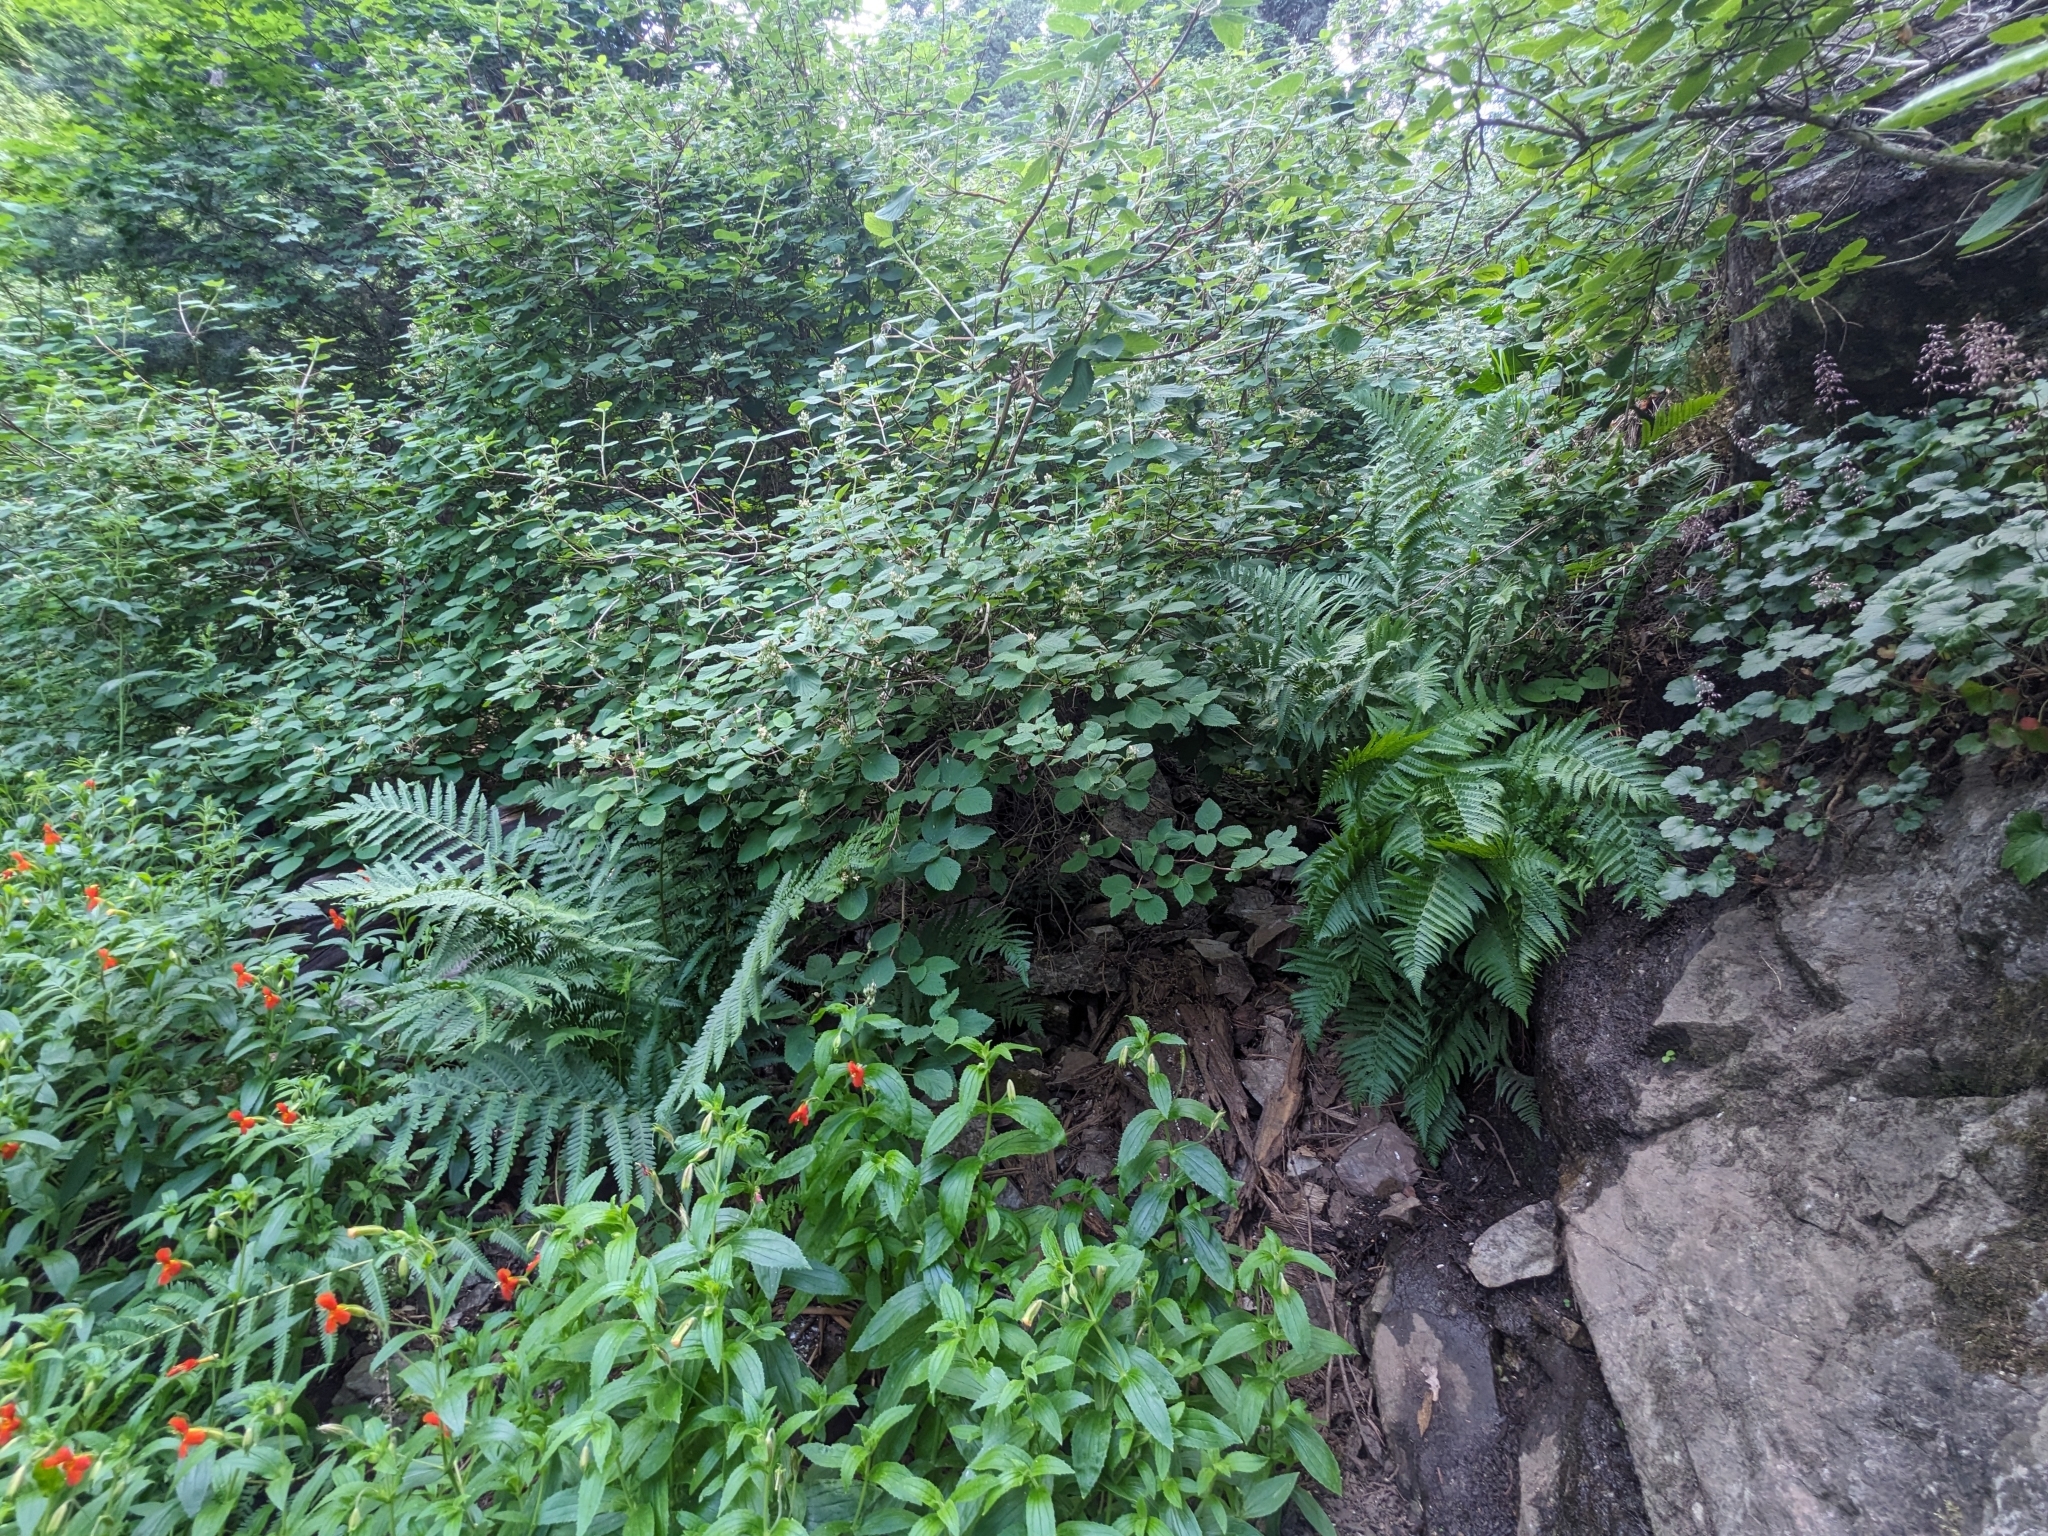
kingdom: Plantae
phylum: Tracheophyta
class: Polypodiopsida
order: Polypodiales
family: Dryopteridaceae
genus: Dryopteris
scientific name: Dryopteris filix-mas
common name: Male fern
